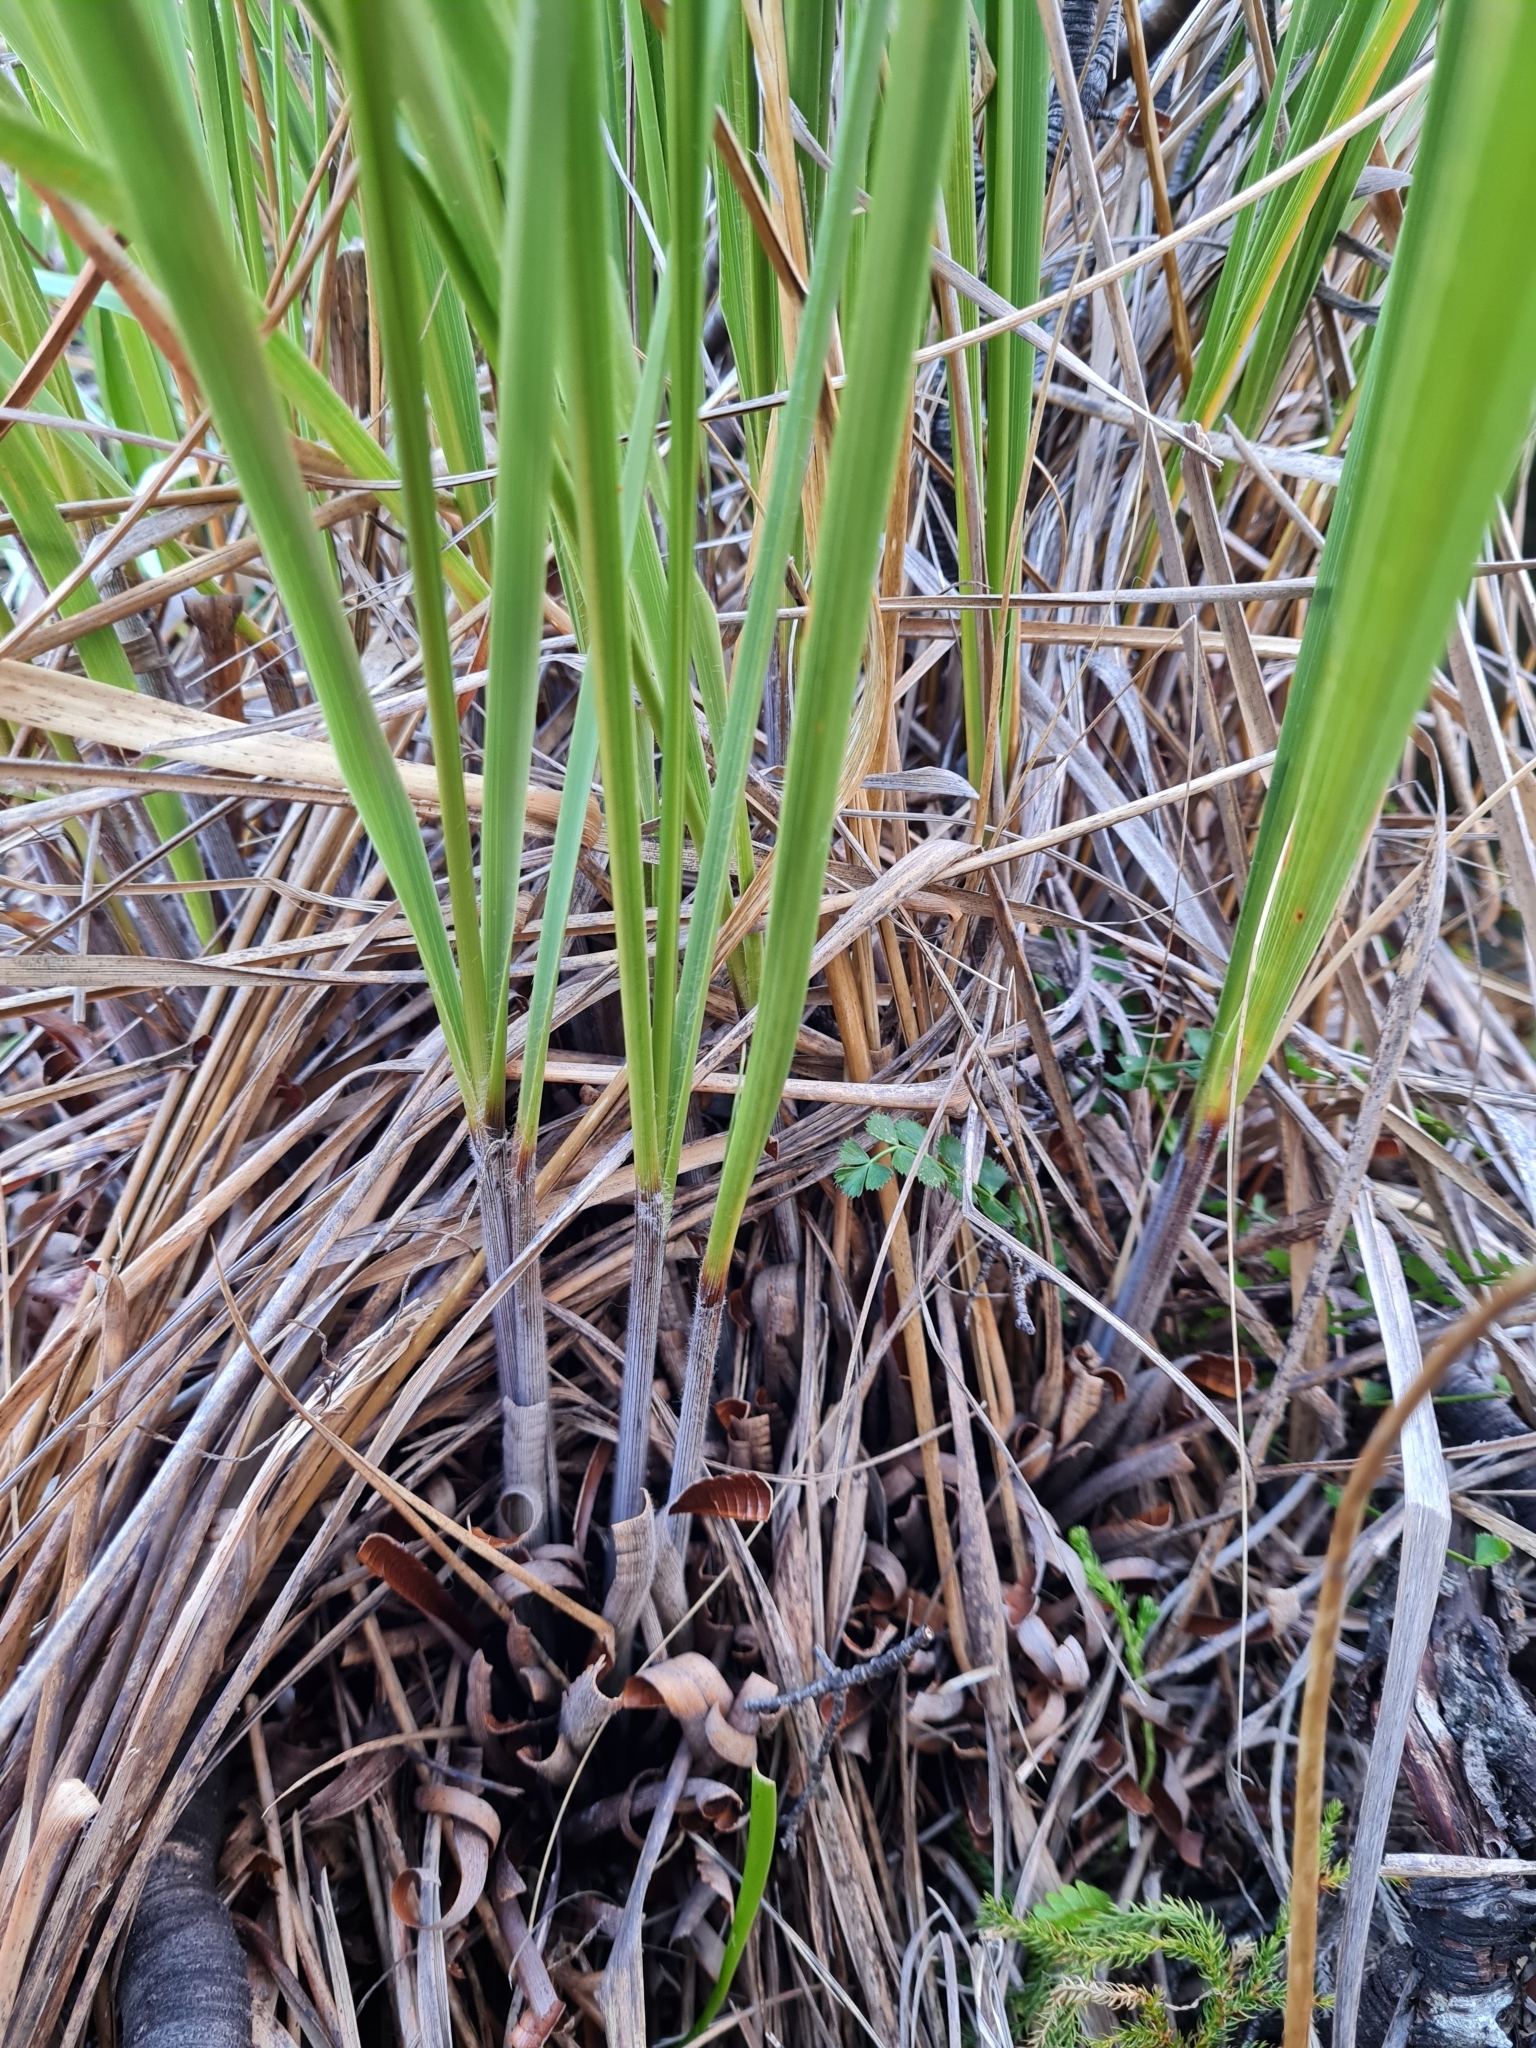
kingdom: Plantae
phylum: Tracheophyta
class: Liliopsida
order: Poales
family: Poaceae
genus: Chionochloa
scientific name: Chionochloa rigida
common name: Narrow leaved snow tussock
